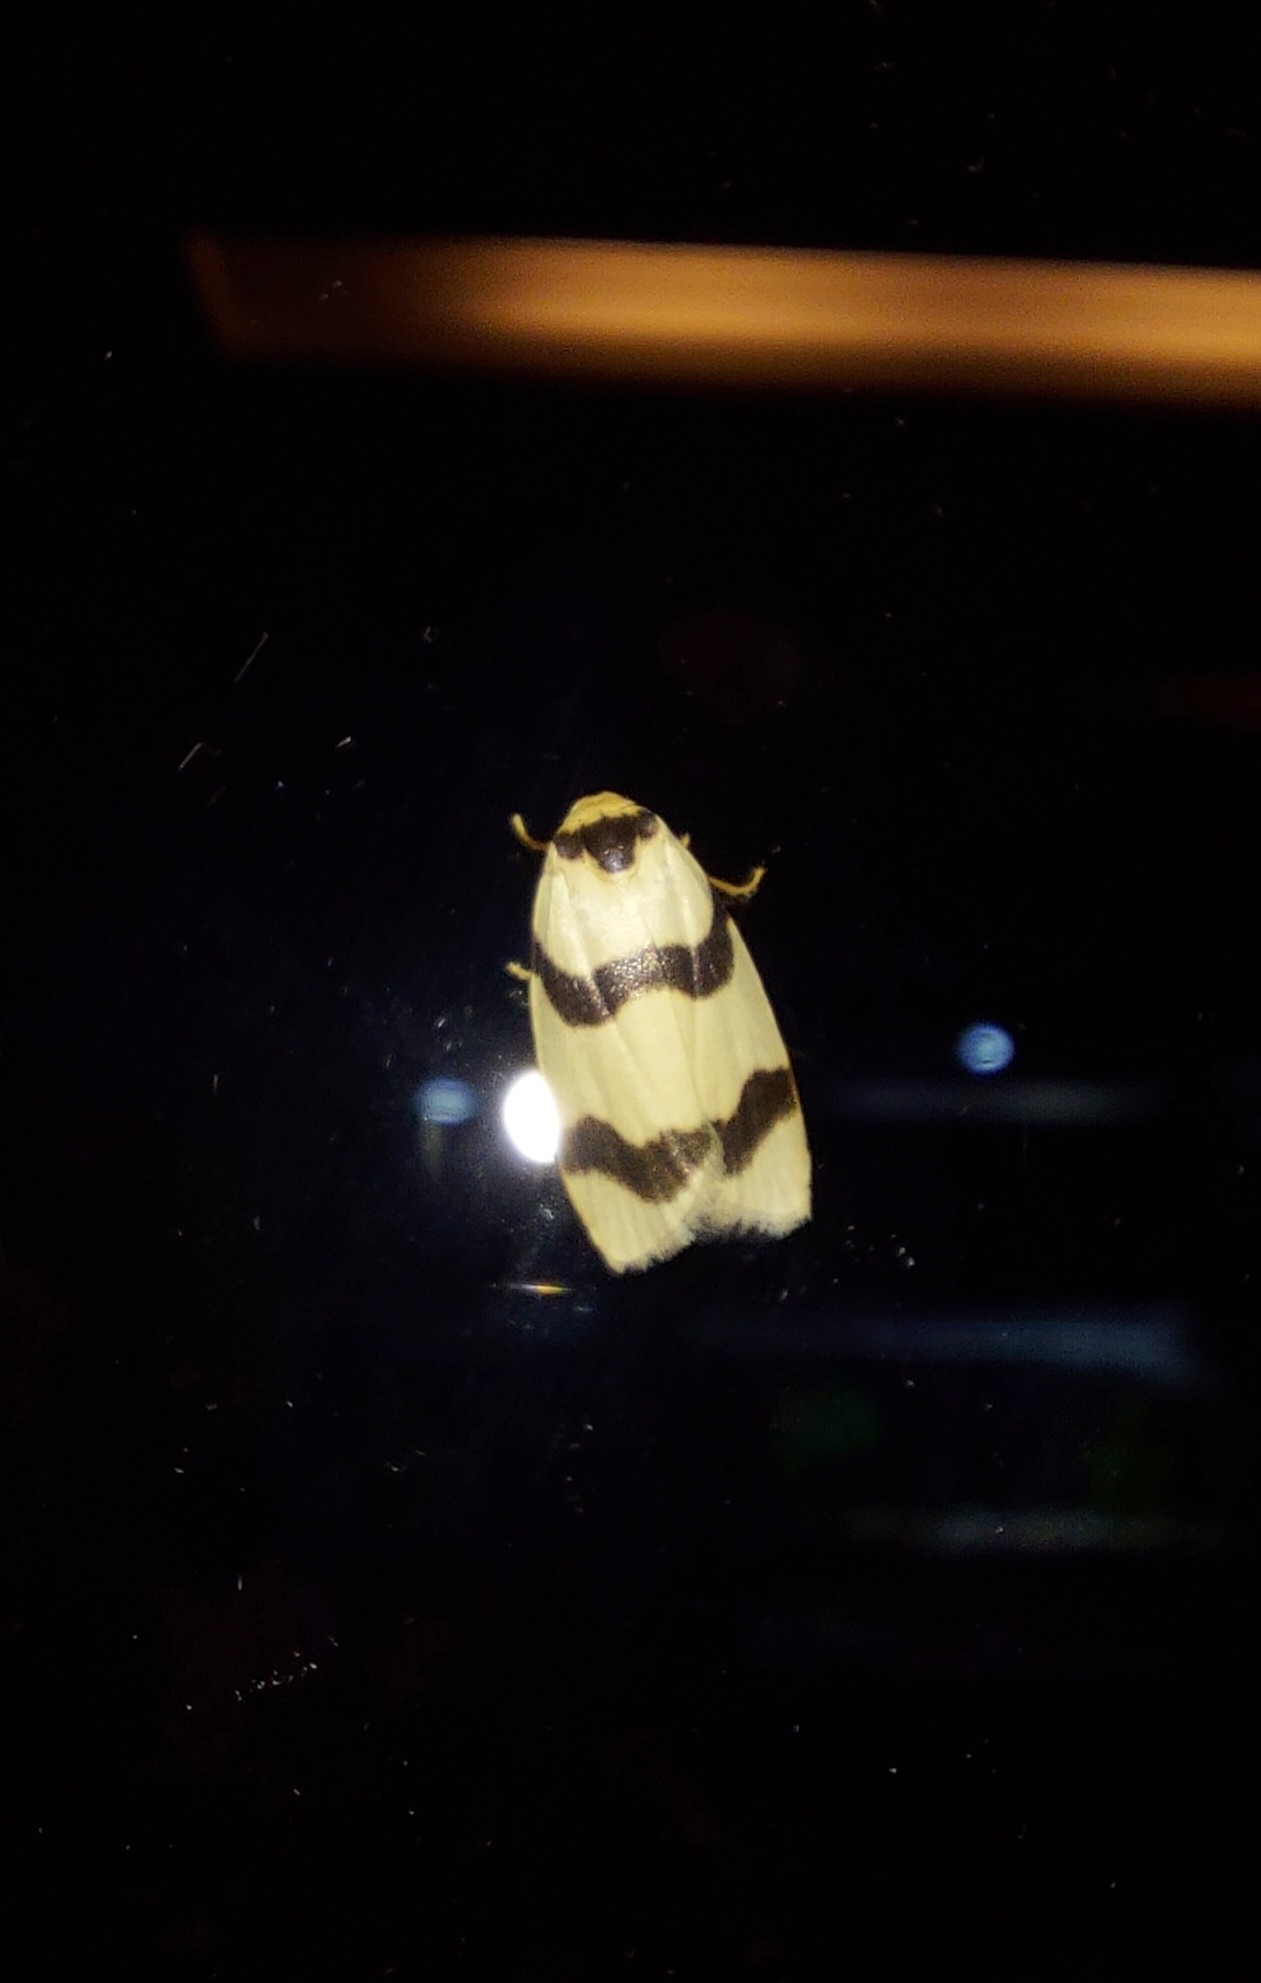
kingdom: Animalia
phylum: Arthropoda
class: Insecta
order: Lepidoptera
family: Erebidae
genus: Padenia
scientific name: Padenia transversa
